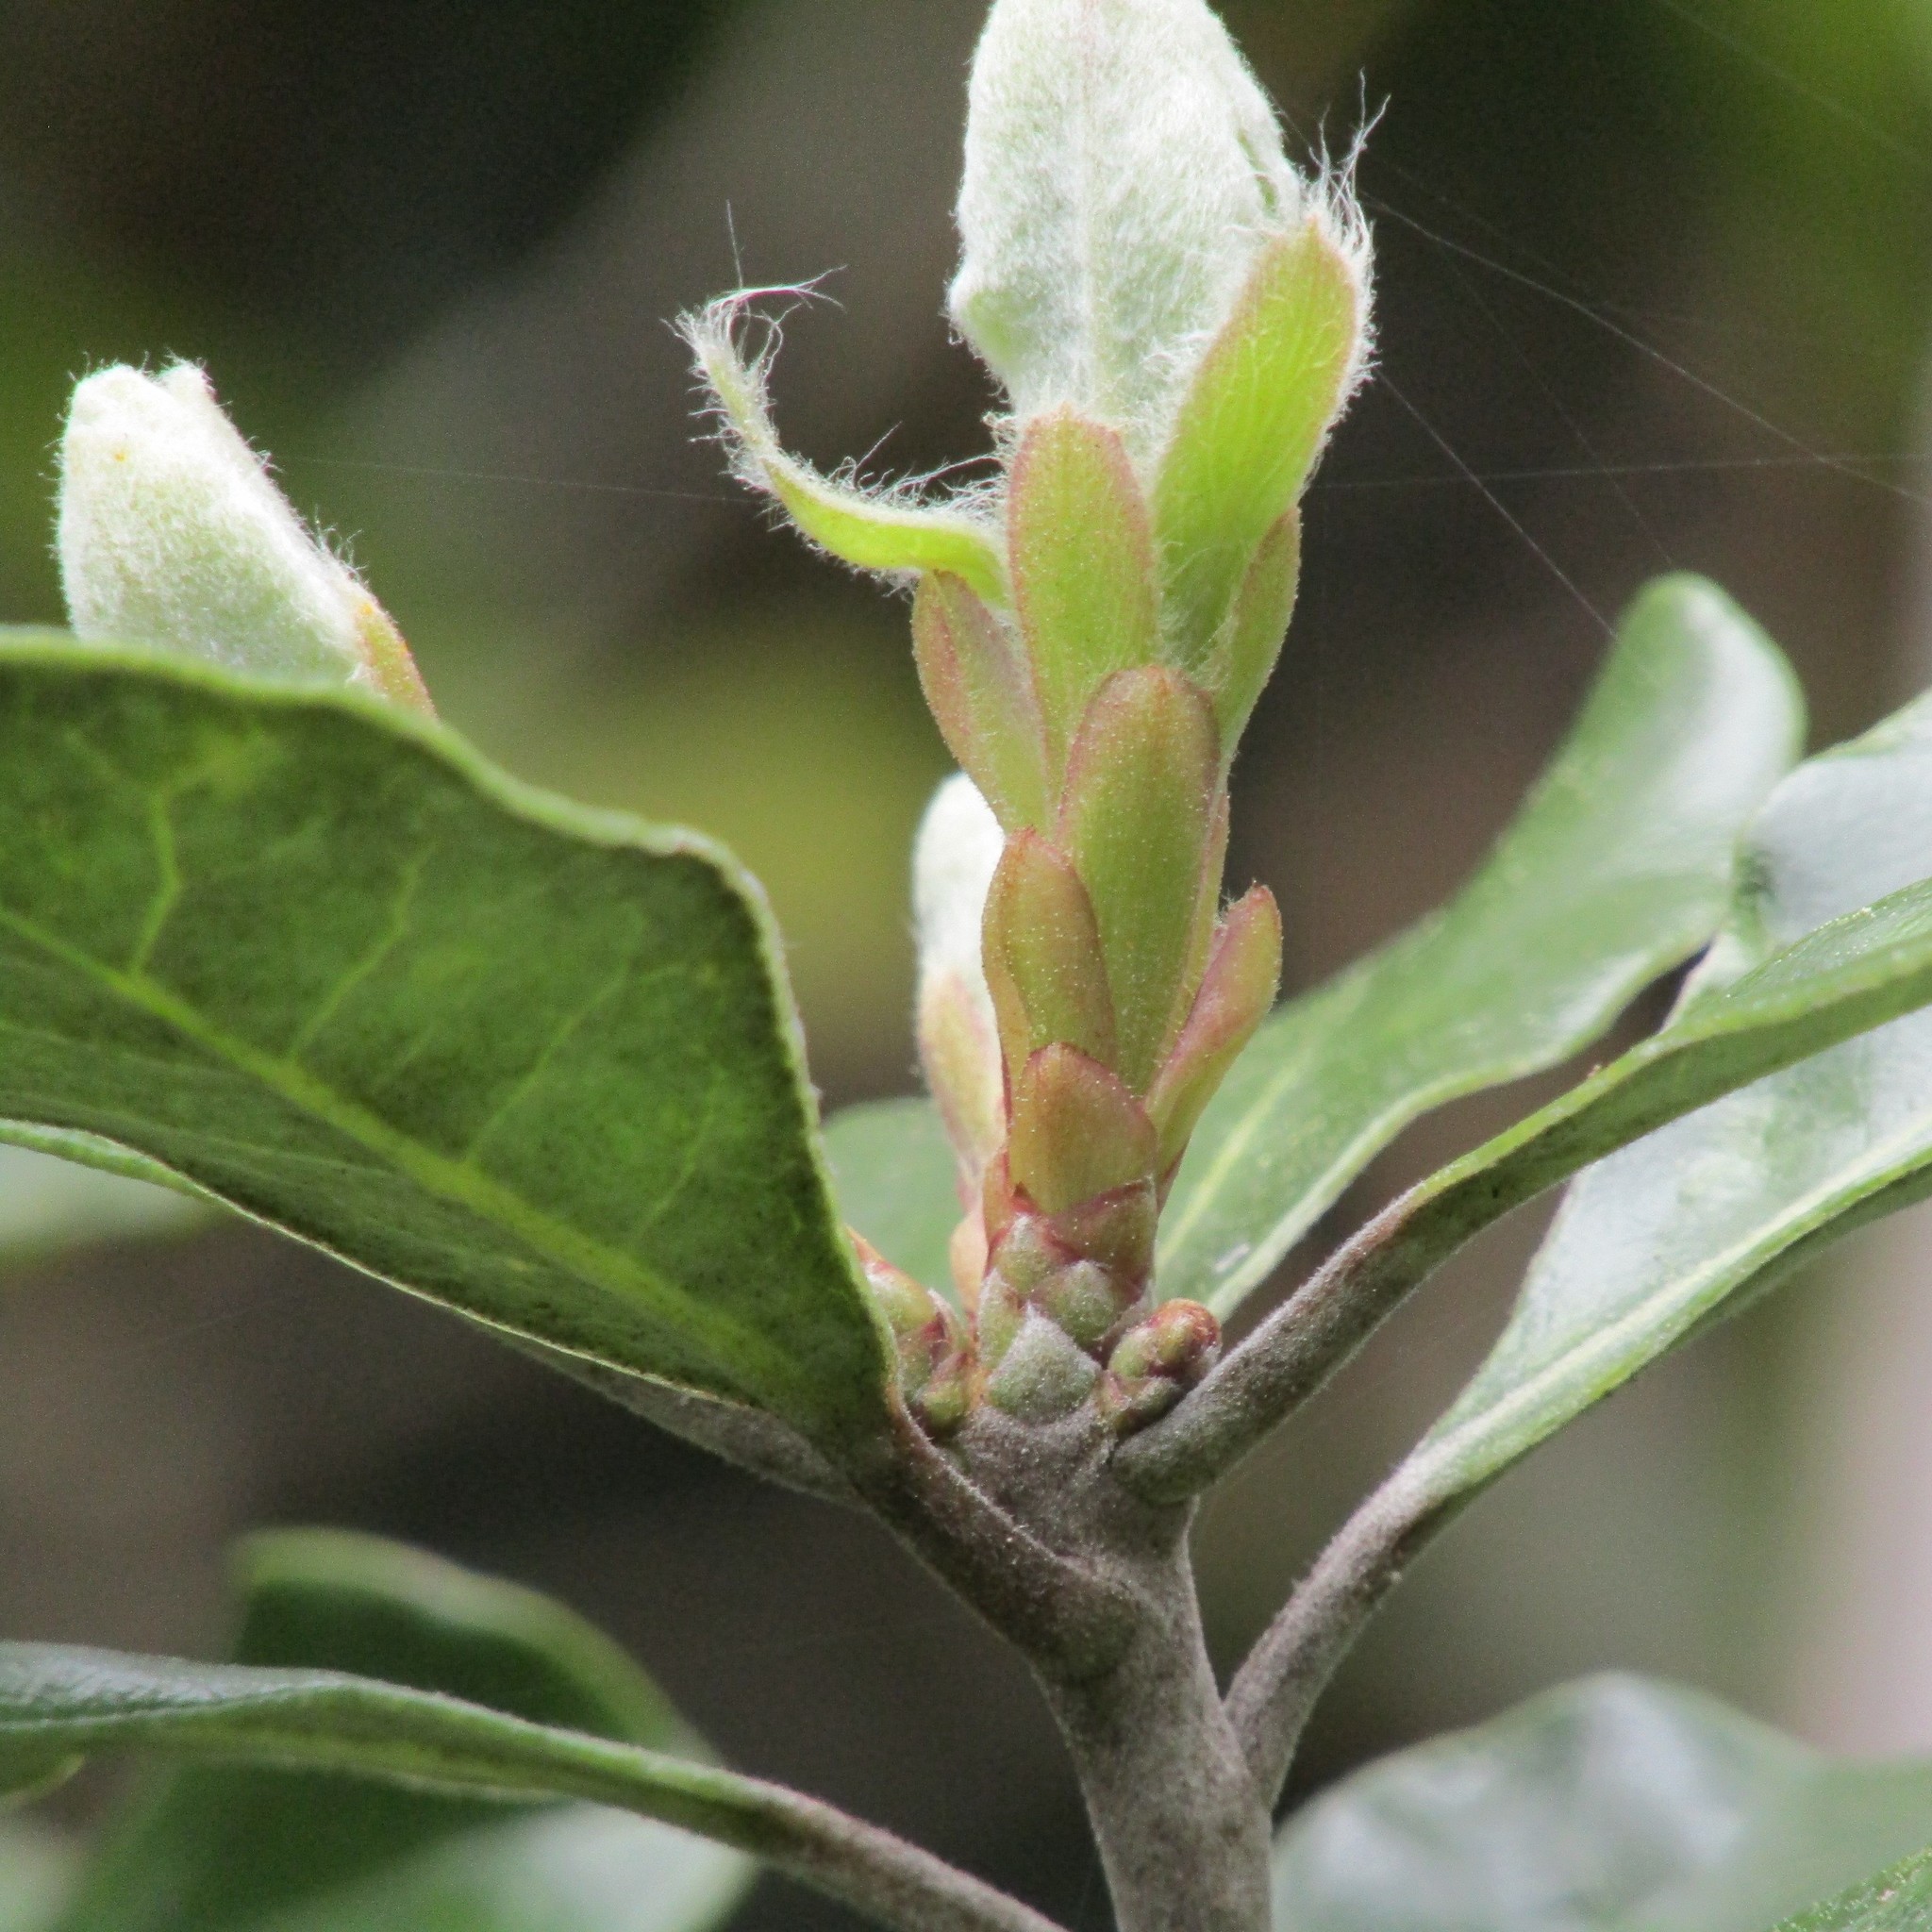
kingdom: Plantae
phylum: Tracheophyta
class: Magnoliopsida
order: Apiales
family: Pittosporaceae
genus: Pittosporum
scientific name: Pittosporum ralphii
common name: Ralph's desertwillow
